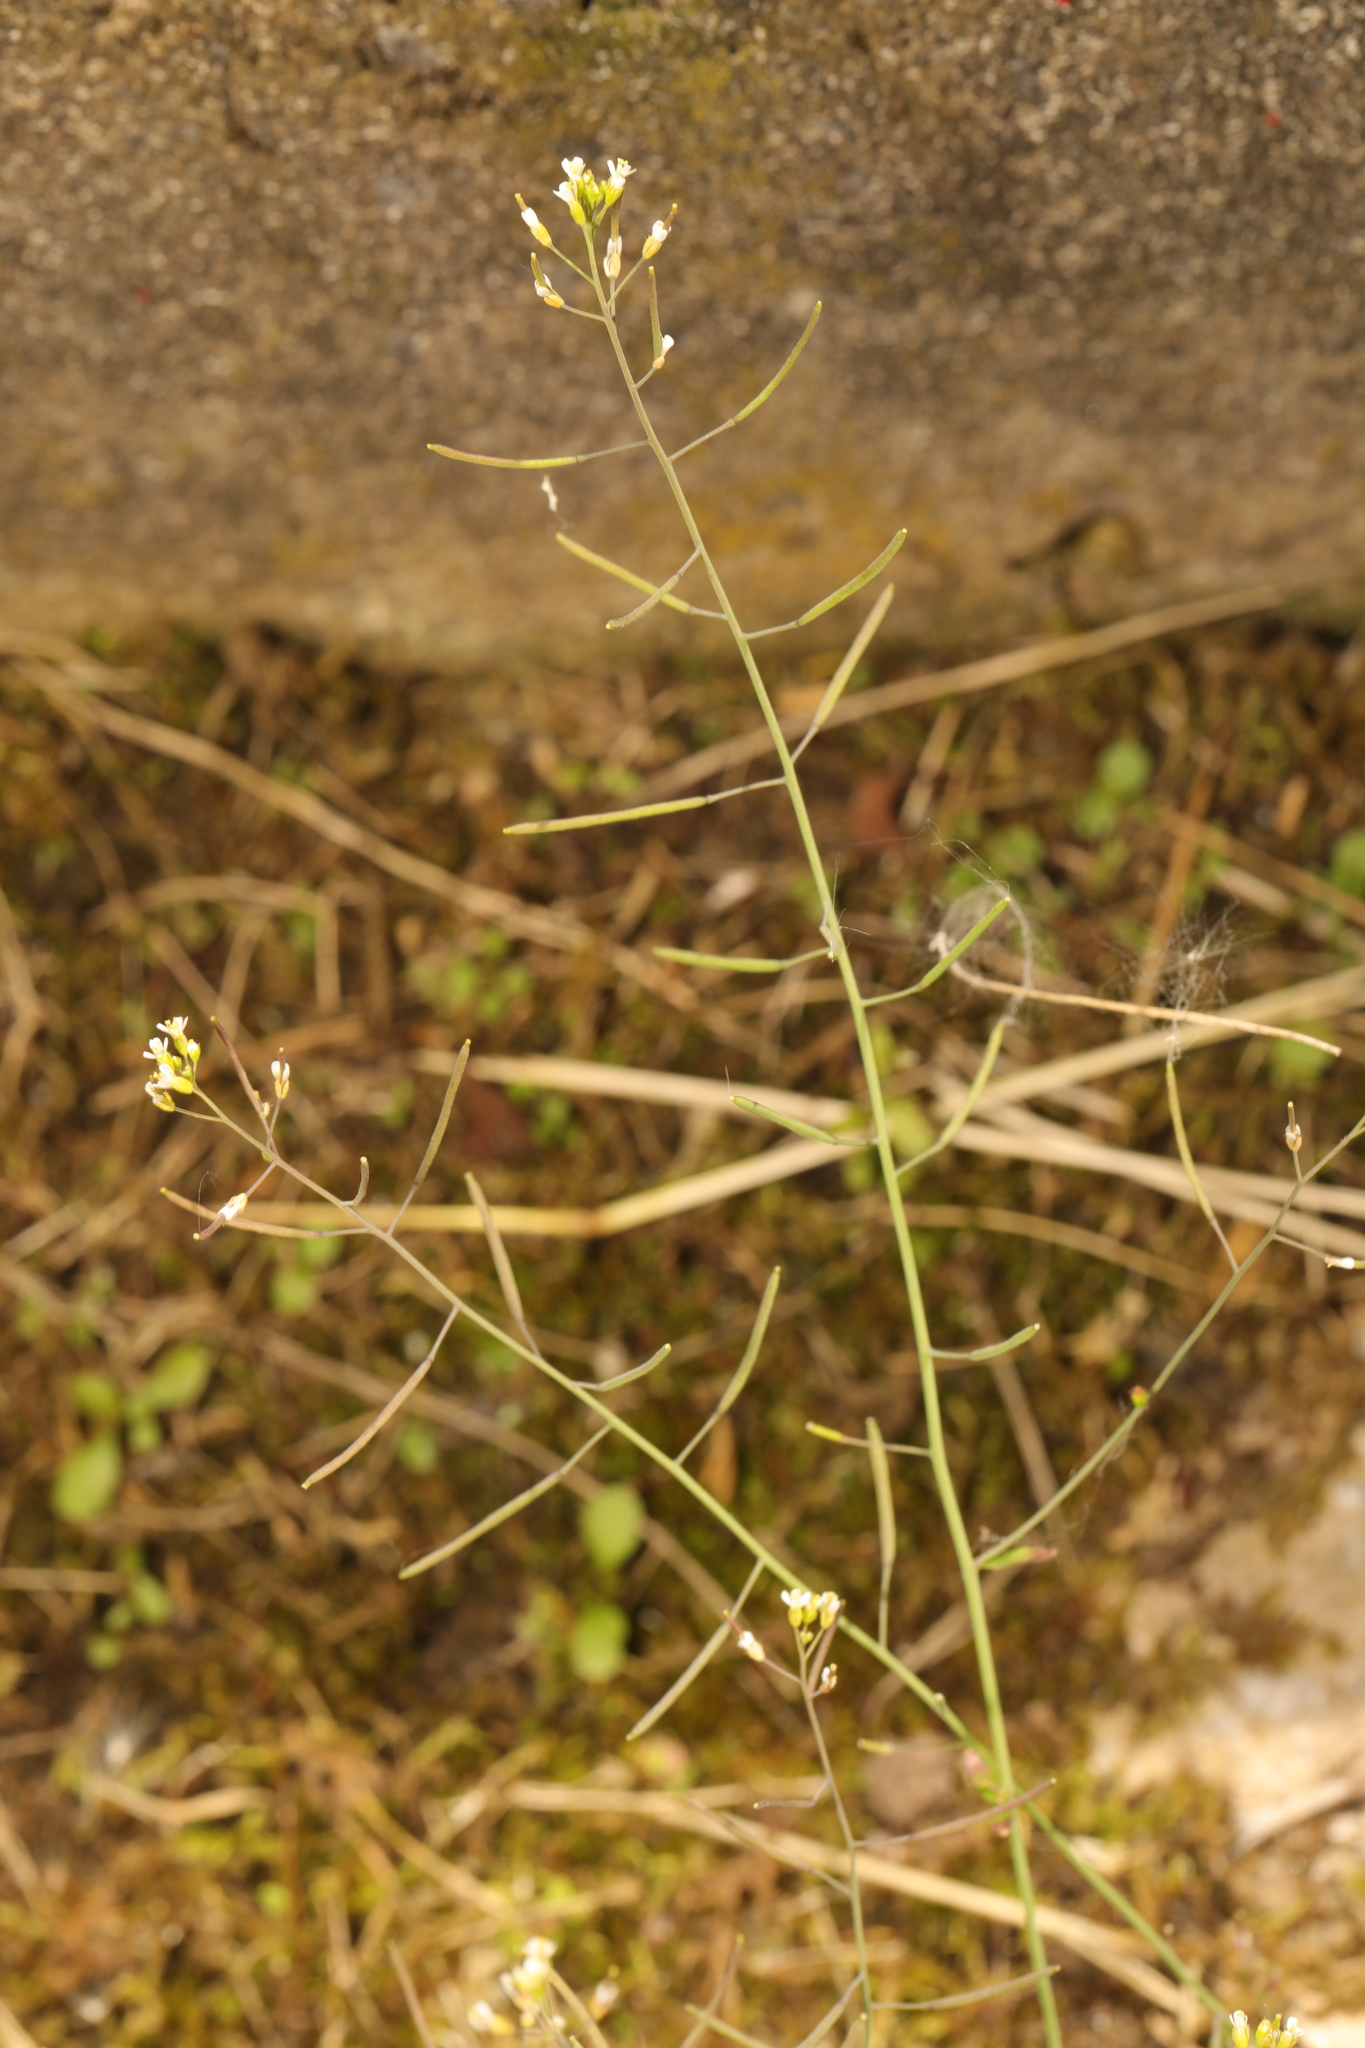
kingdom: Plantae
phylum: Tracheophyta
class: Magnoliopsida
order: Brassicales
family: Brassicaceae
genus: Arabidopsis
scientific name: Arabidopsis thaliana
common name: Thale cress
